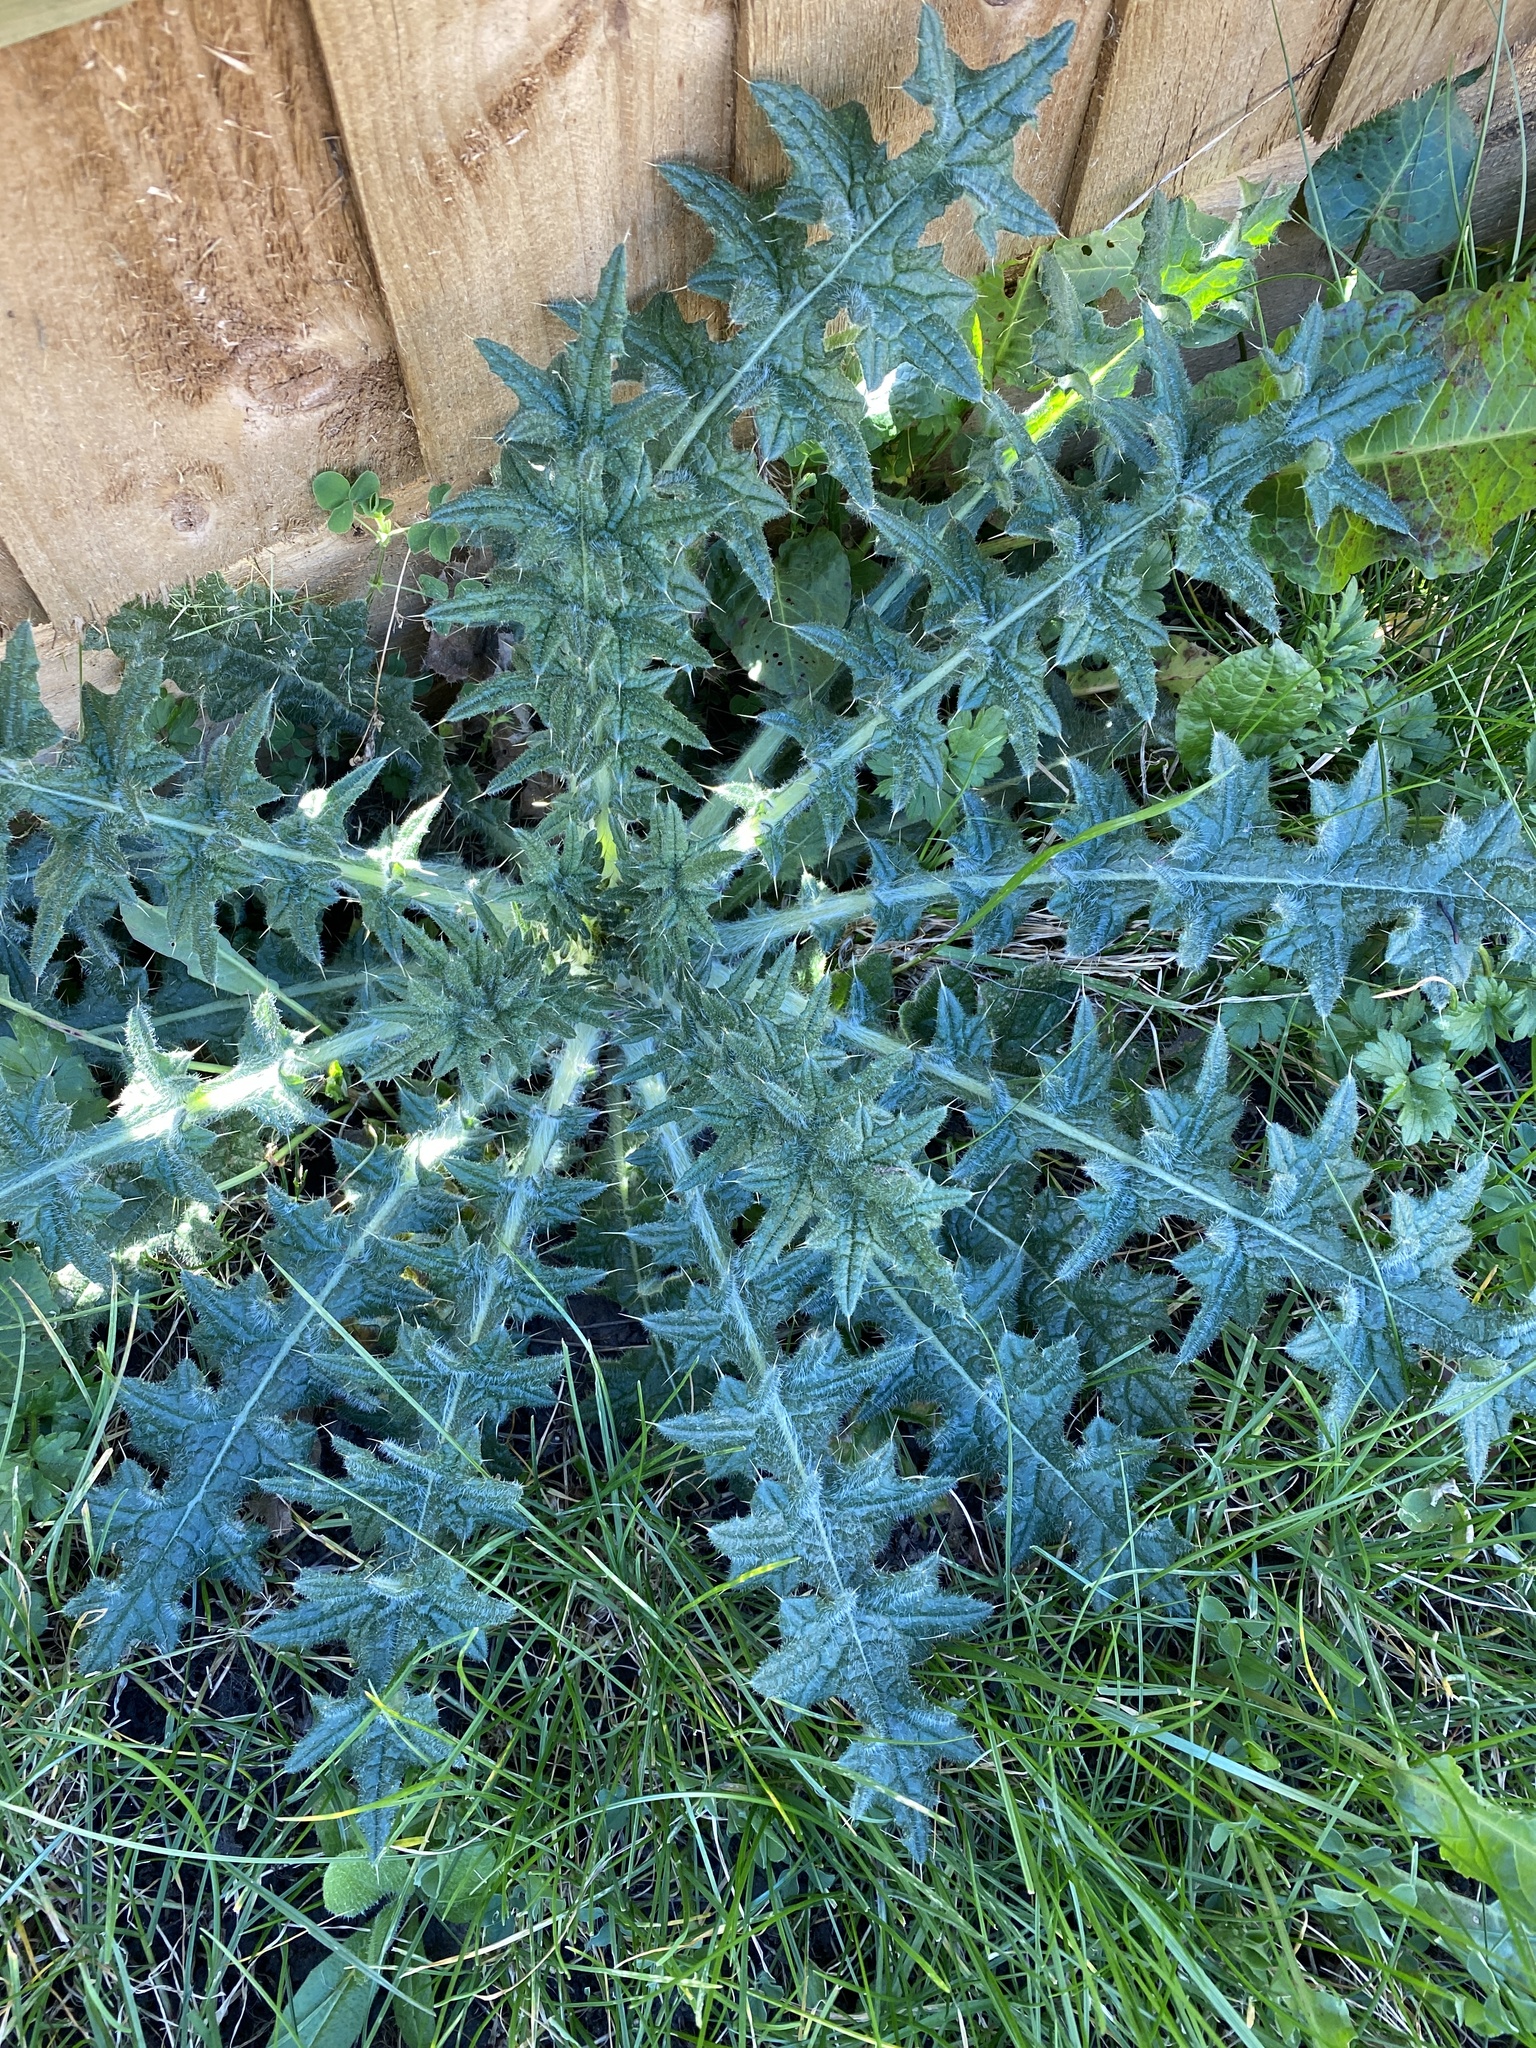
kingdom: Plantae
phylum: Tracheophyta
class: Magnoliopsida
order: Asterales
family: Asteraceae
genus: Cirsium
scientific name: Cirsium vulgare
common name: Bull thistle
